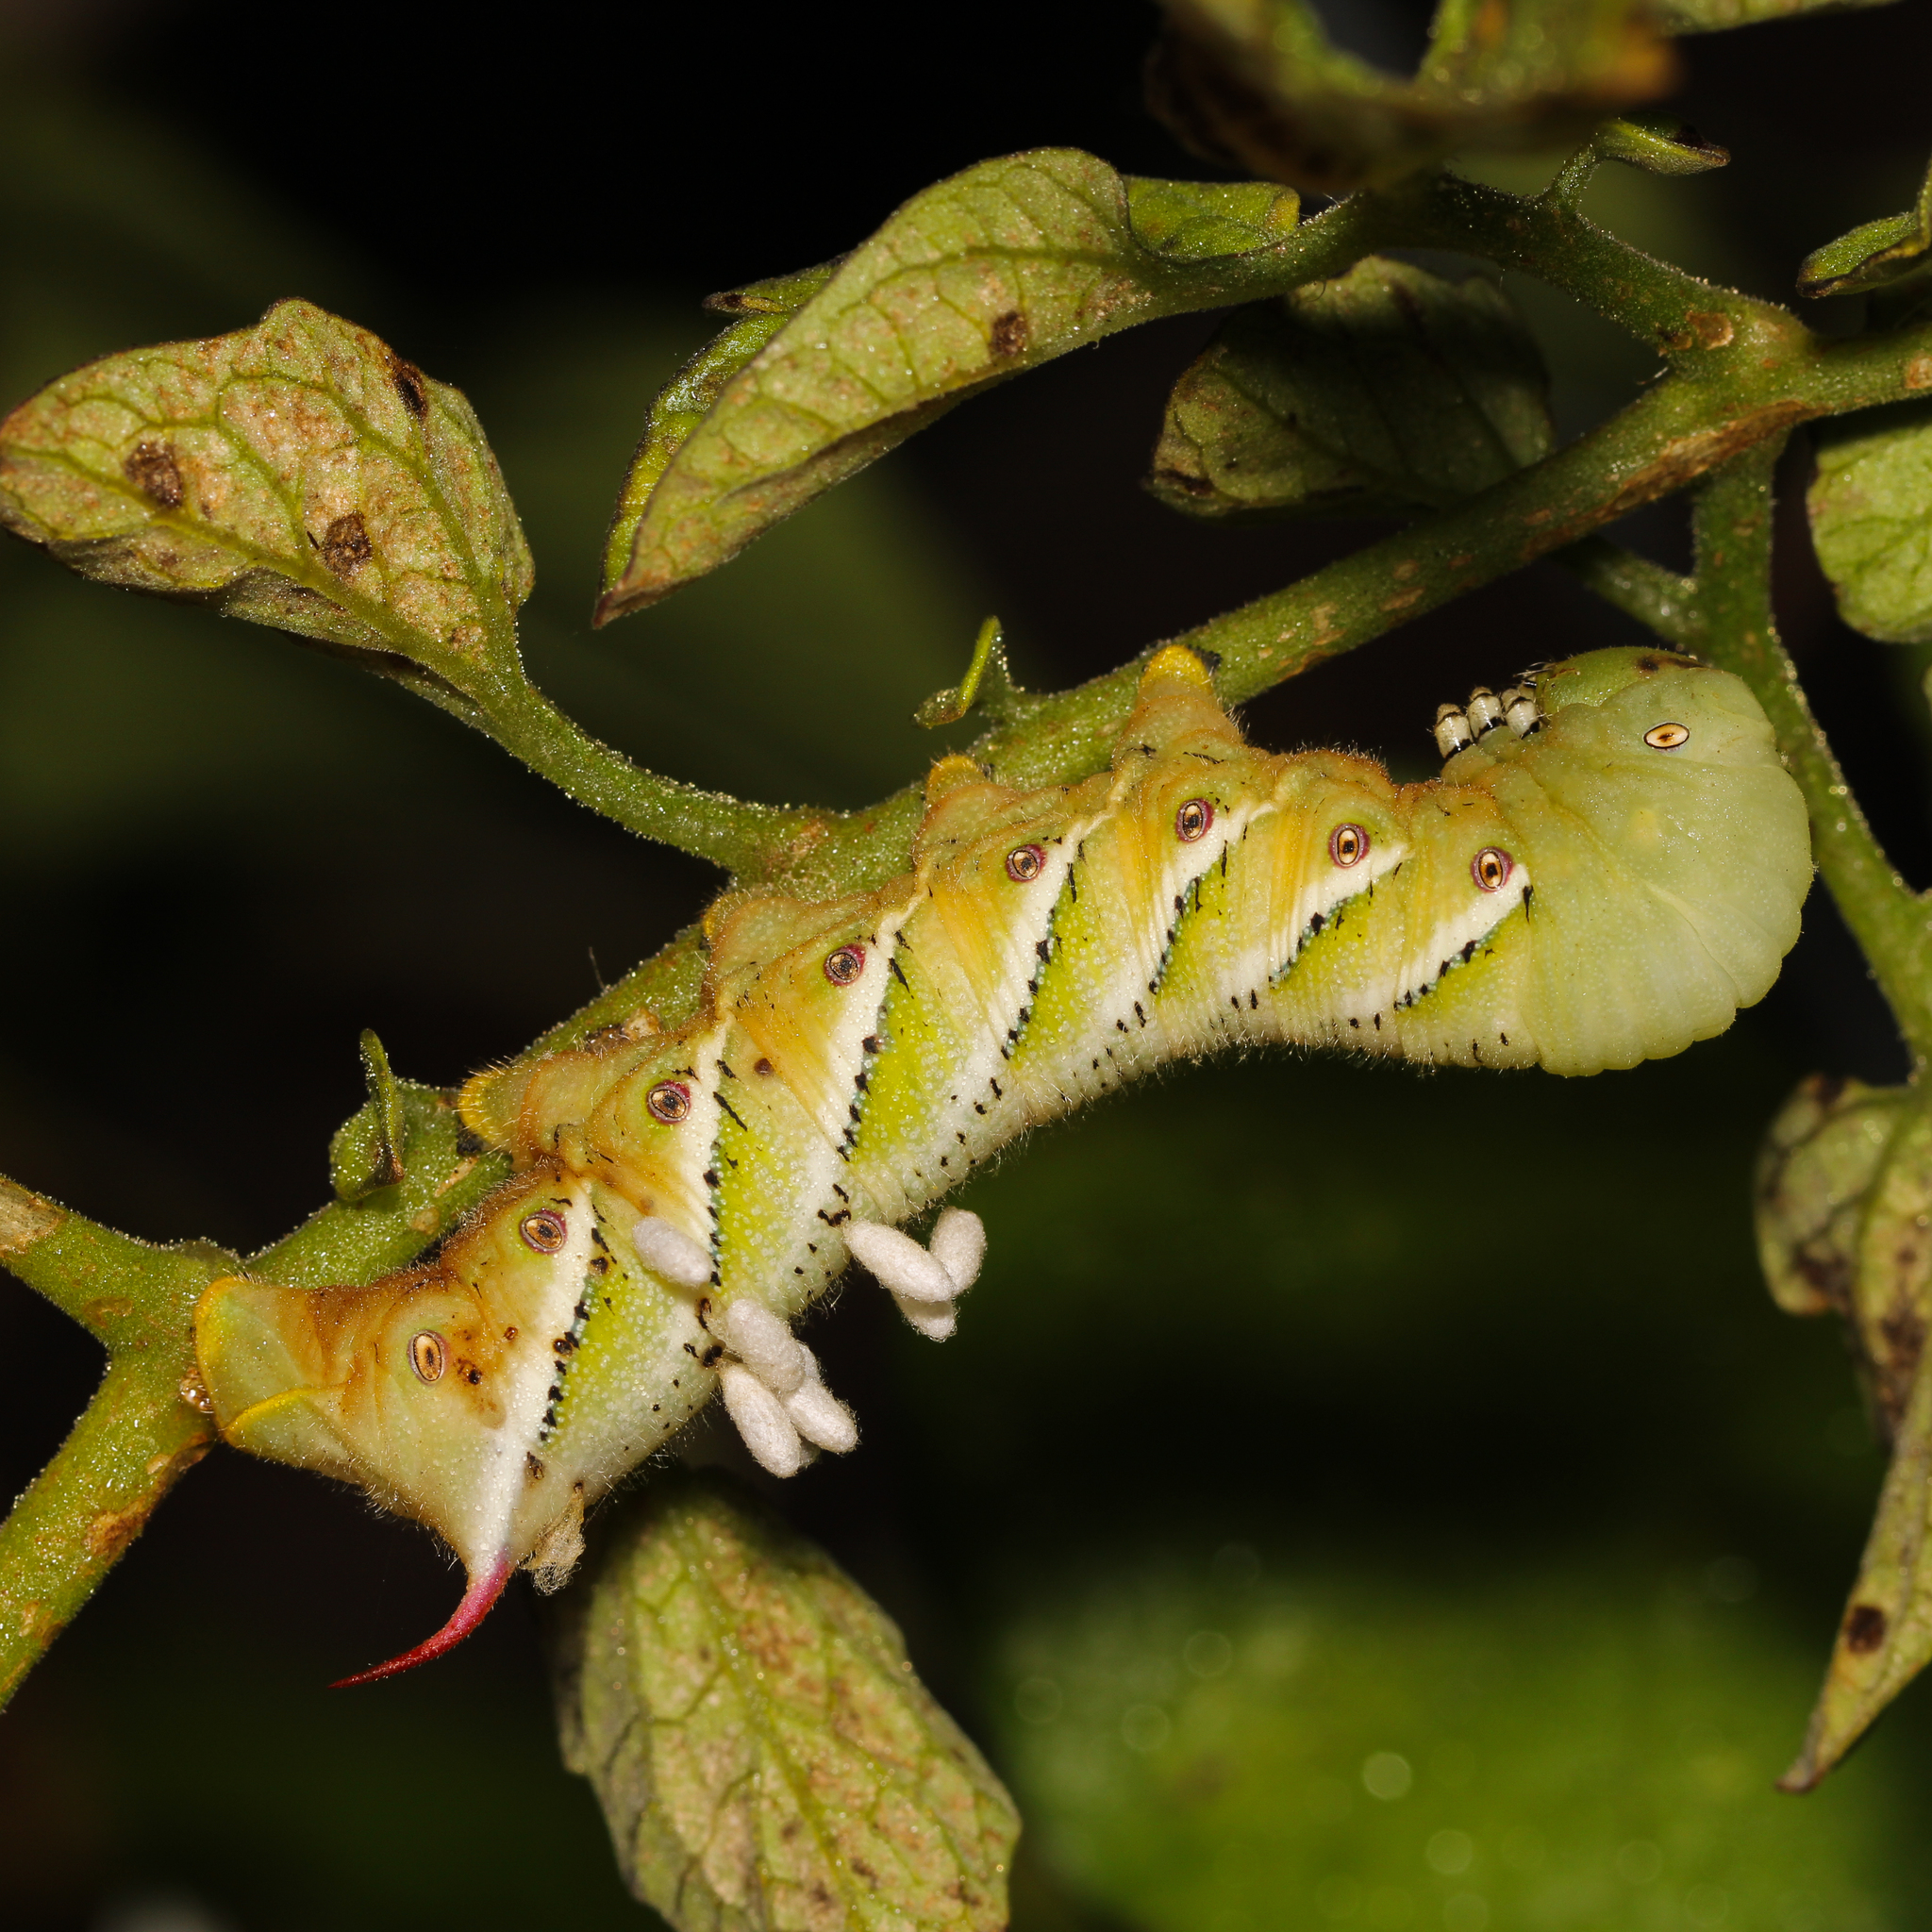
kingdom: Animalia
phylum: Arthropoda
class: Insecta
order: Lepidoptera
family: Sphingidae
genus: Manduca
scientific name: Manduca sexta
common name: Carolina sphinx
